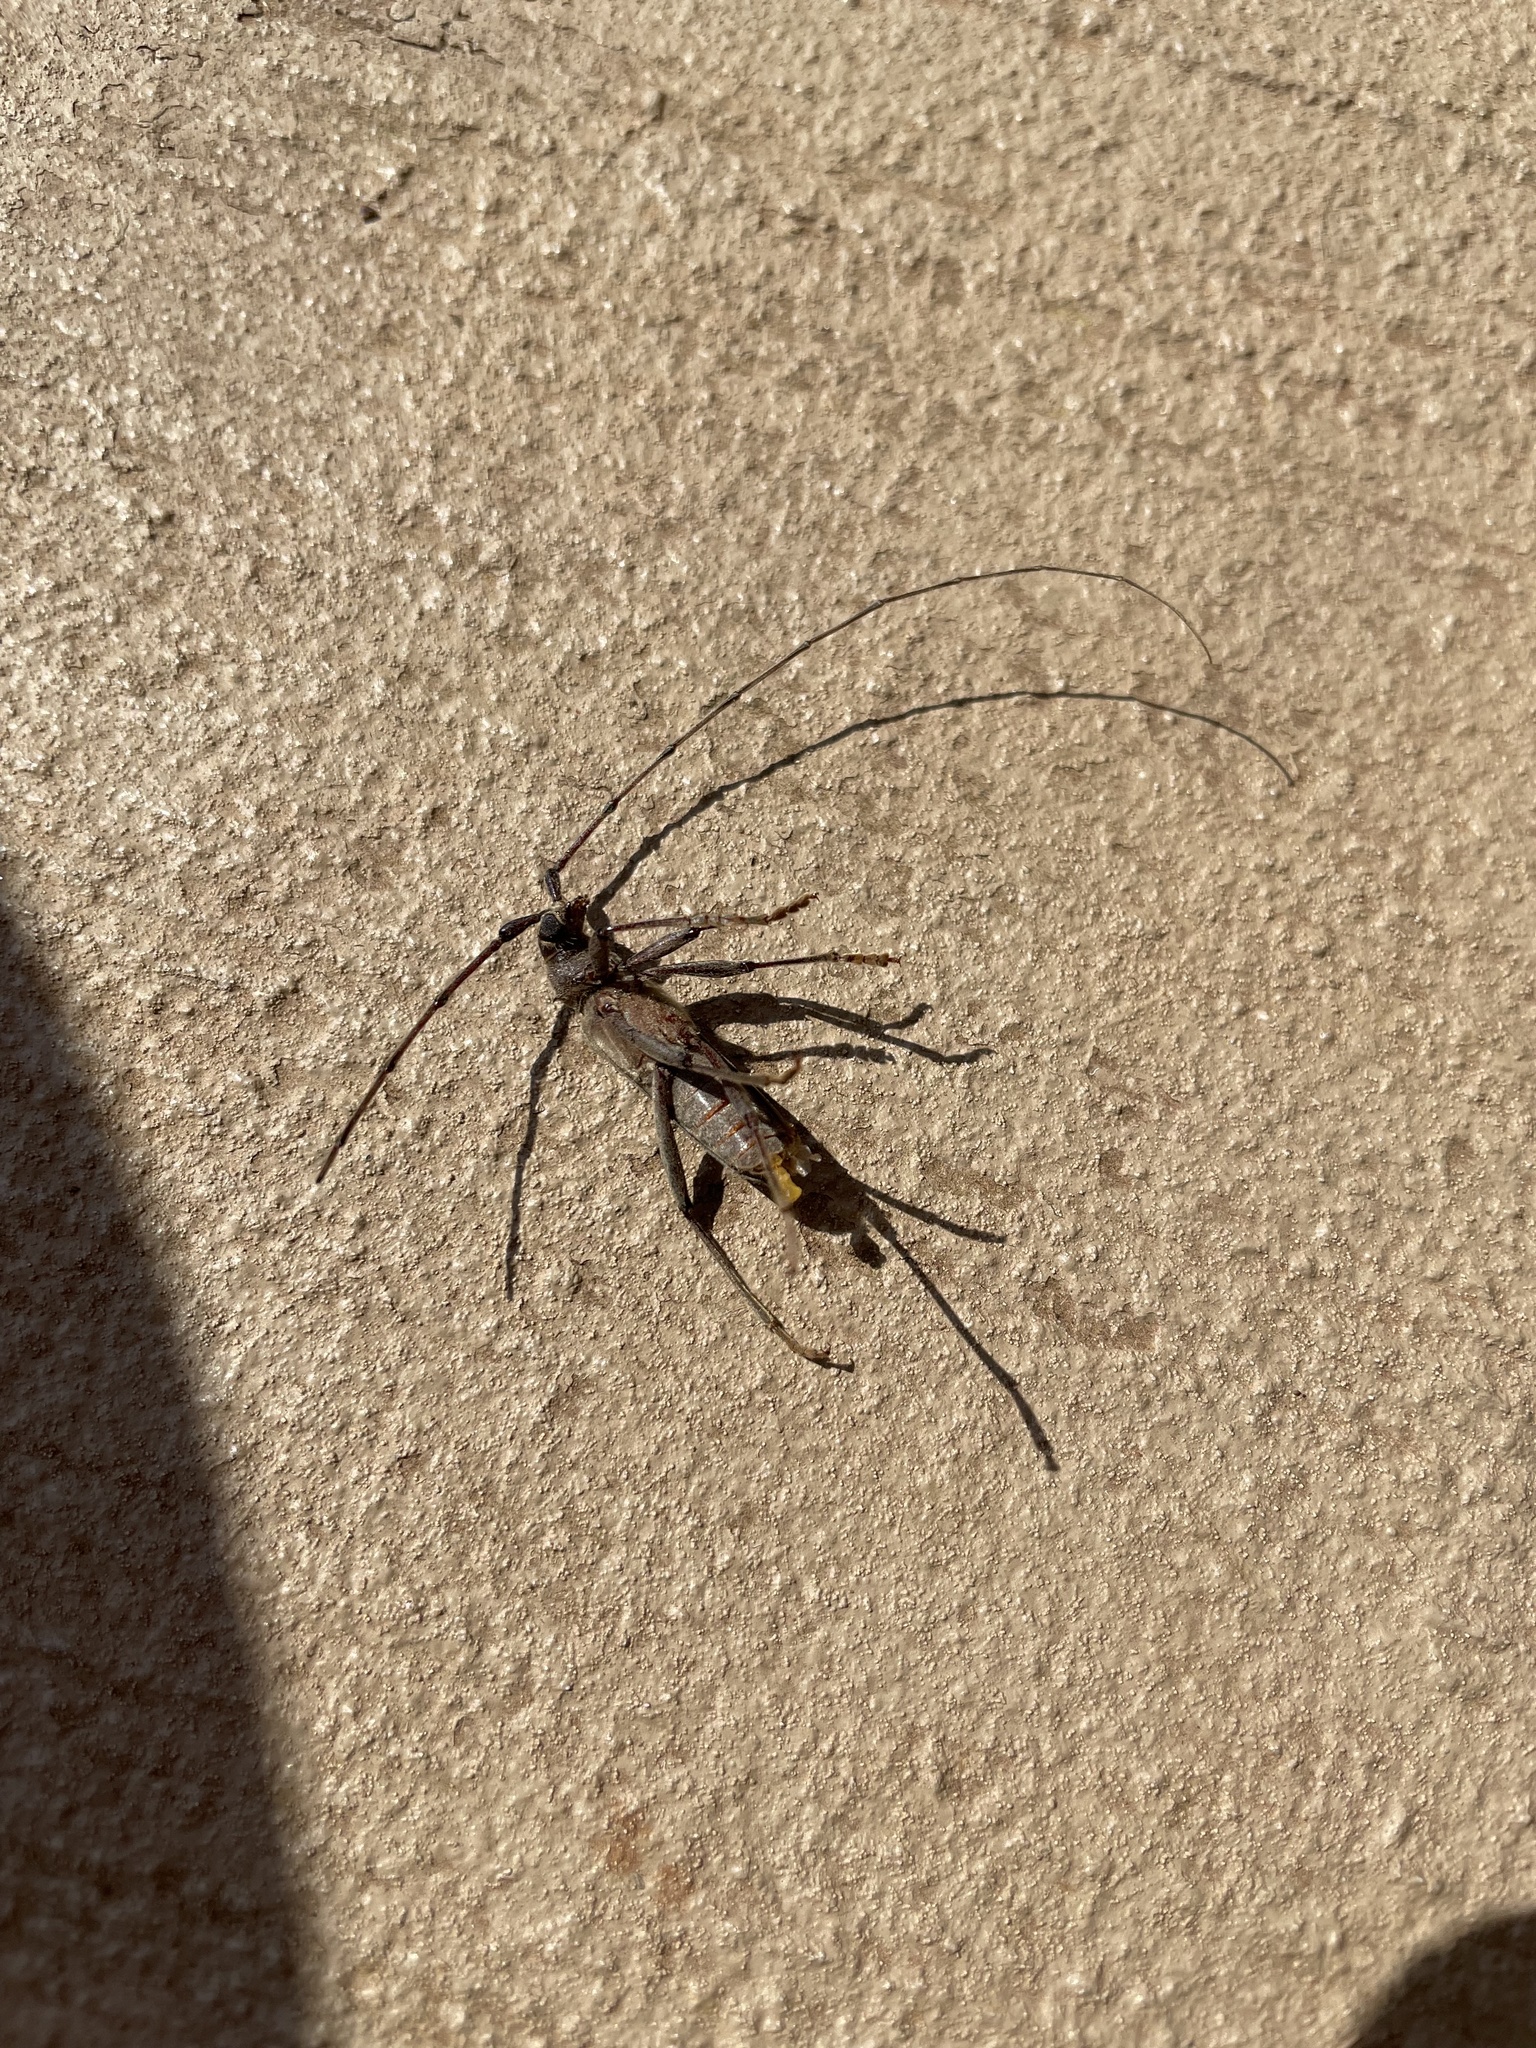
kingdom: Animalia
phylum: Arthropoda
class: Insecta
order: Coleoptera
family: Cerambycidae
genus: Knulliana
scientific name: Knulliana cincta
